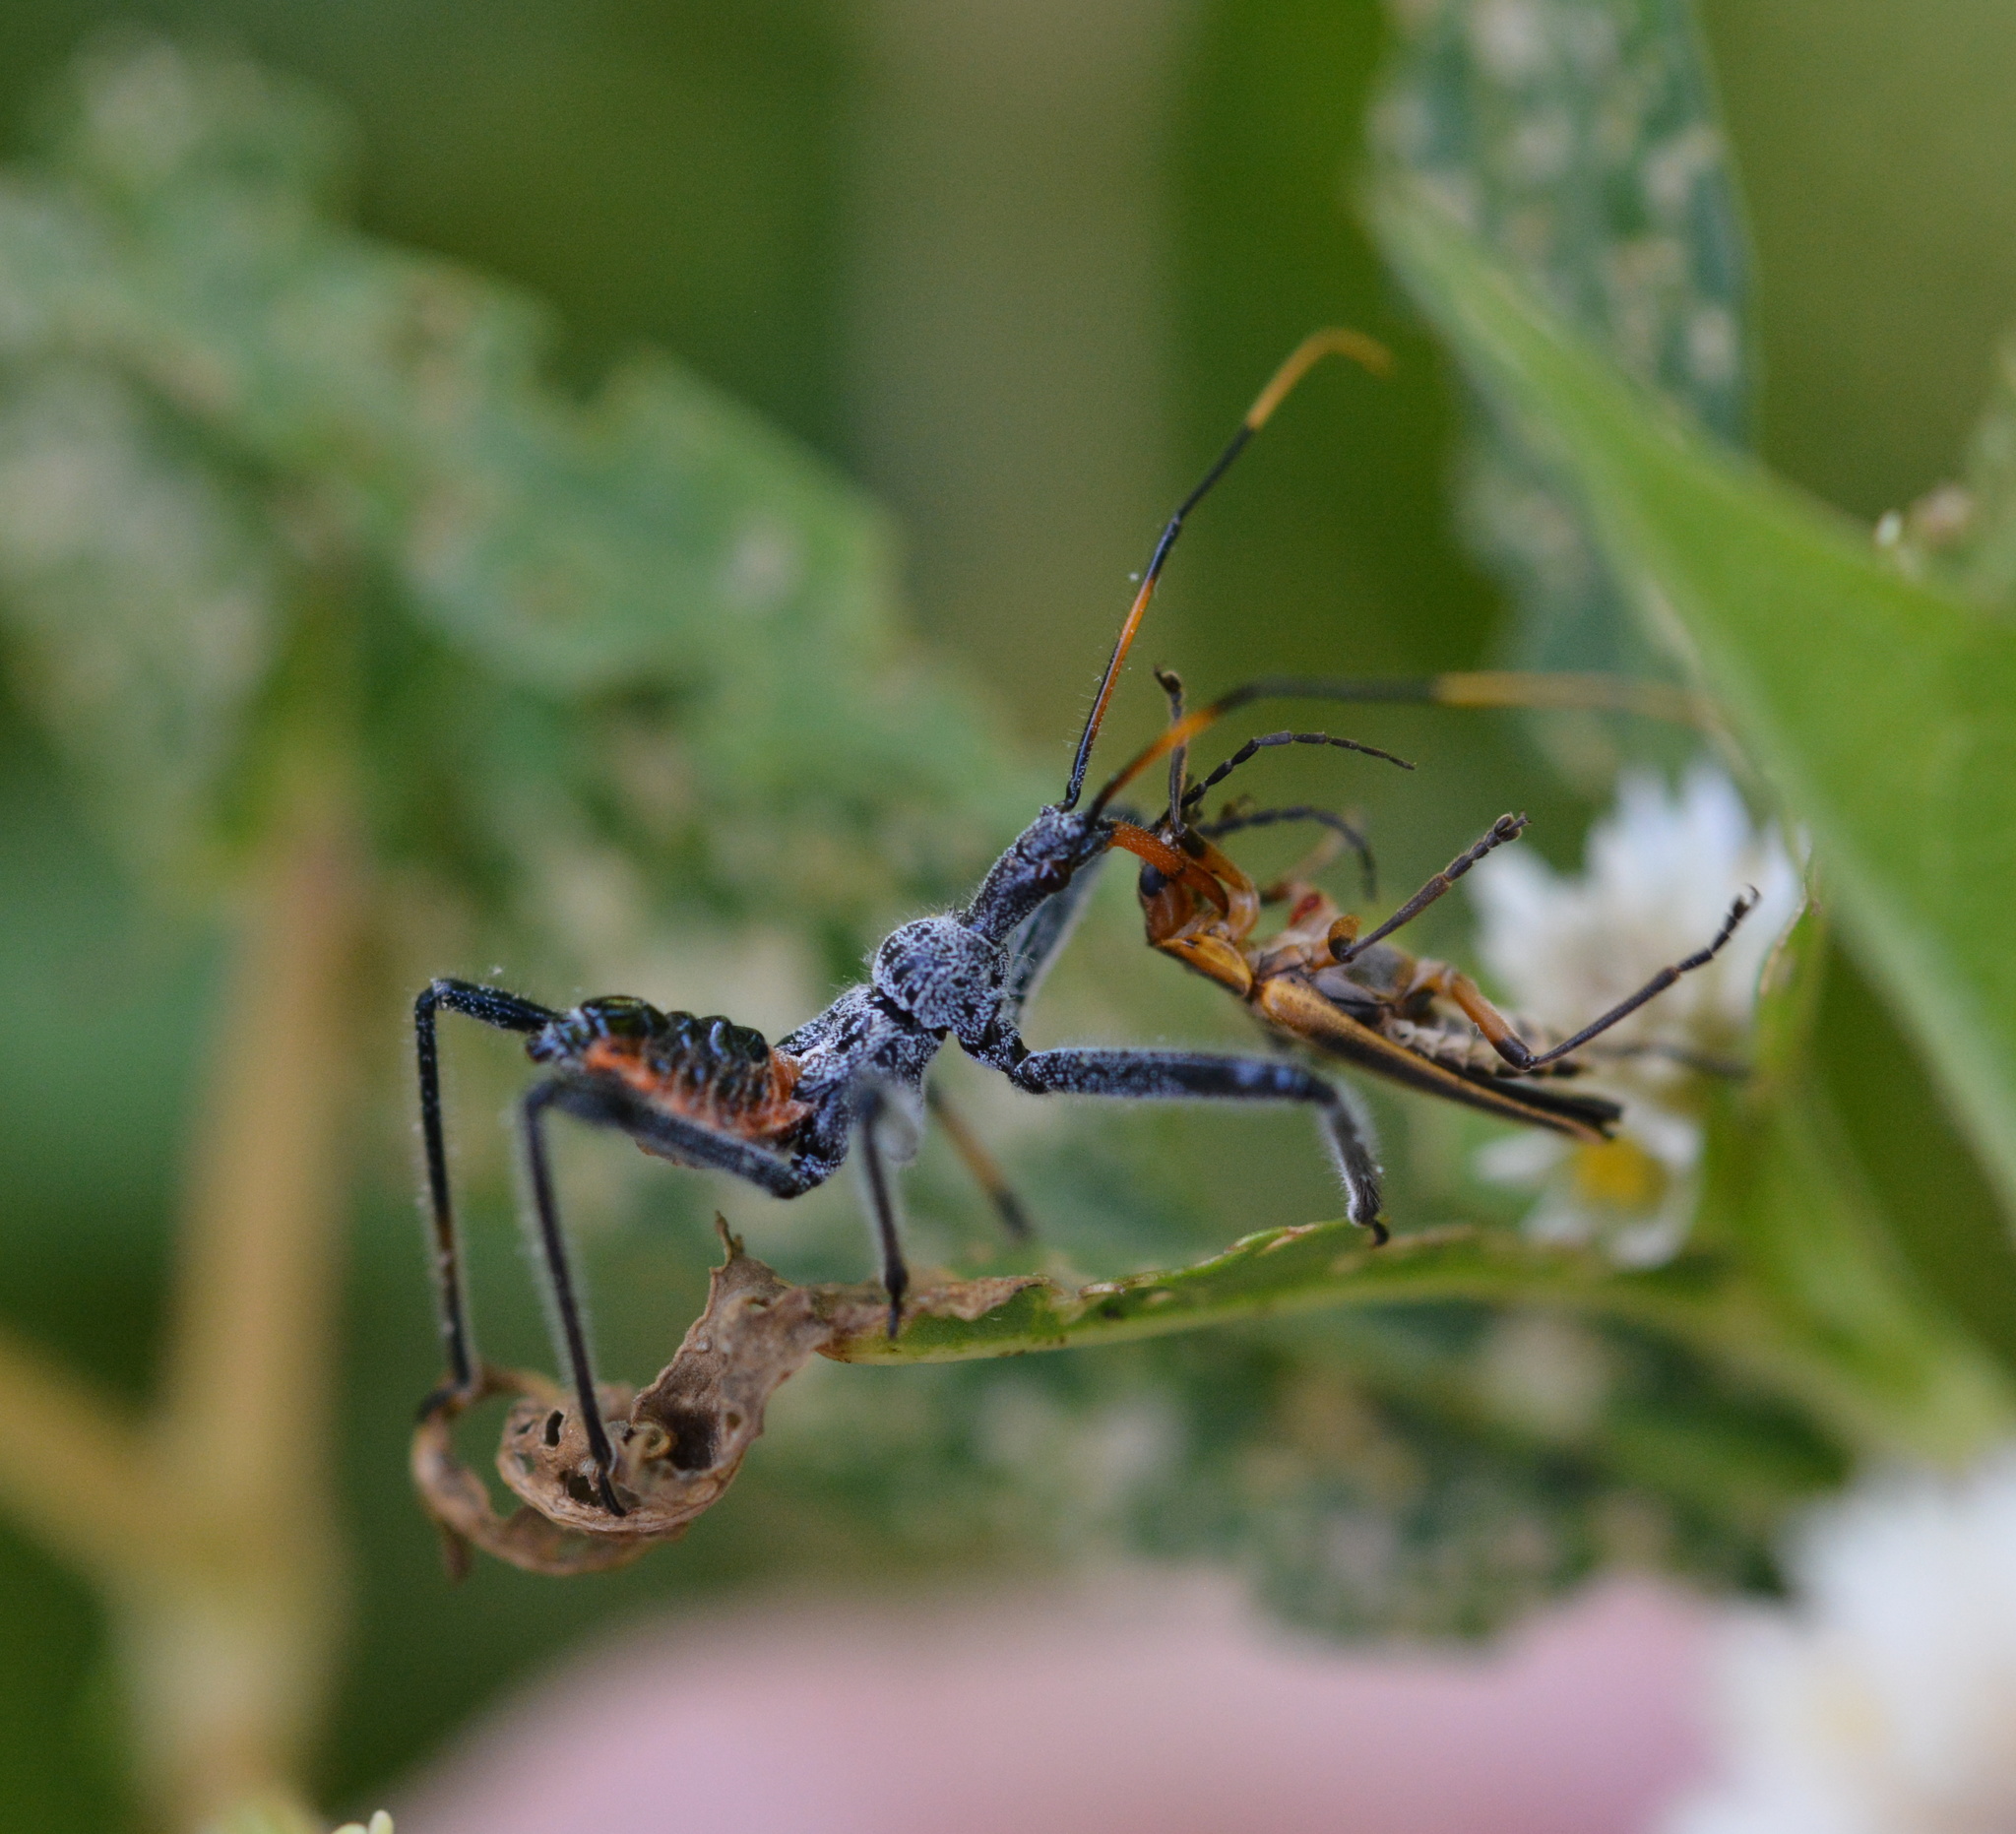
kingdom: Animalia
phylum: Arthropoda
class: Insecta
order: Hemiptera
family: Reduviidae
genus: Arilus
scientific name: Arilus cristatus
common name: North american wheel bug
